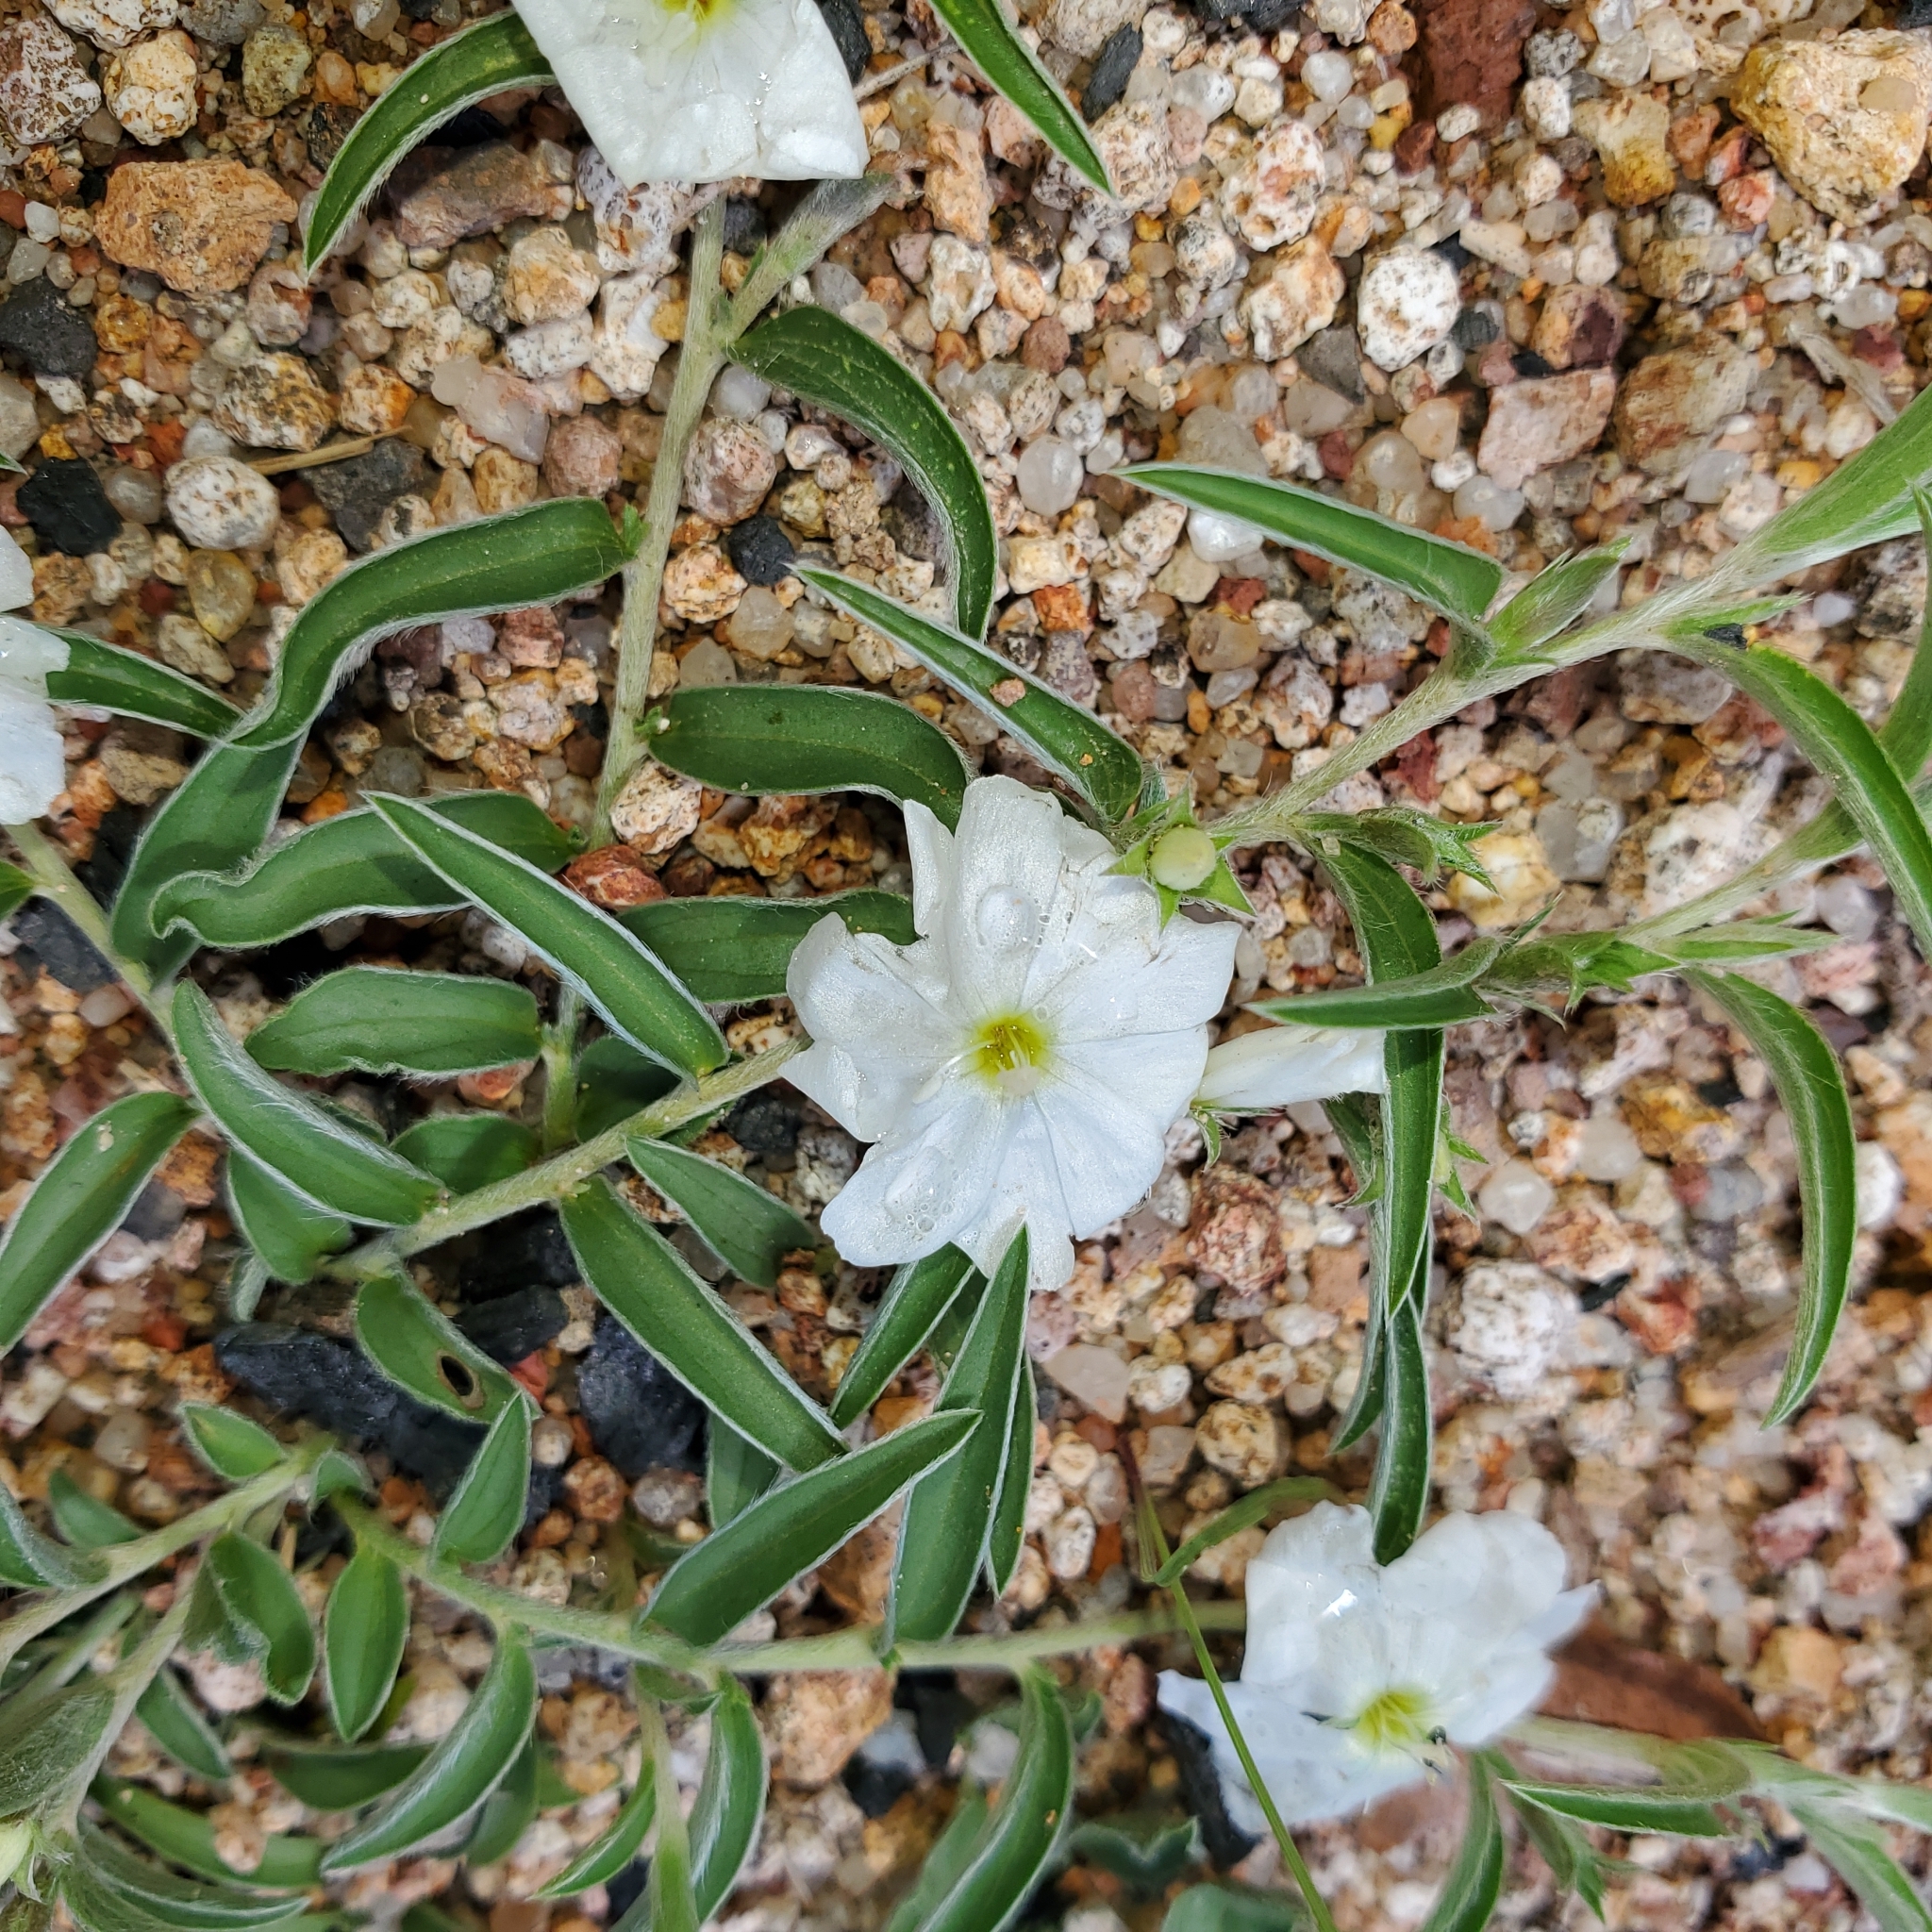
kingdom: Plantae
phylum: Tracheophyta
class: Magnoliopsida
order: Solanales
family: Convolvulaceae
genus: Evolvulus
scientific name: Evolvulus sericeus
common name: Blue dots
